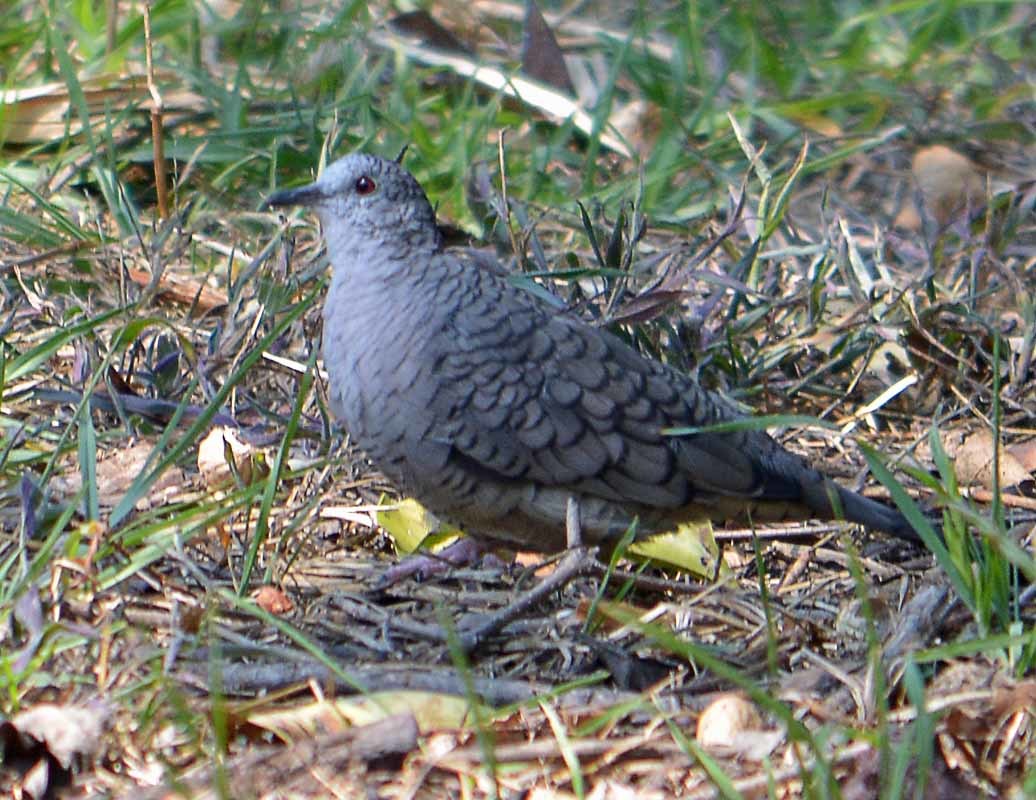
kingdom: Animalia
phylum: Chordata
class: Aves
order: Columbiformes
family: Columbidae
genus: Columbina
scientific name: Columbina inca
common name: Inca dove
